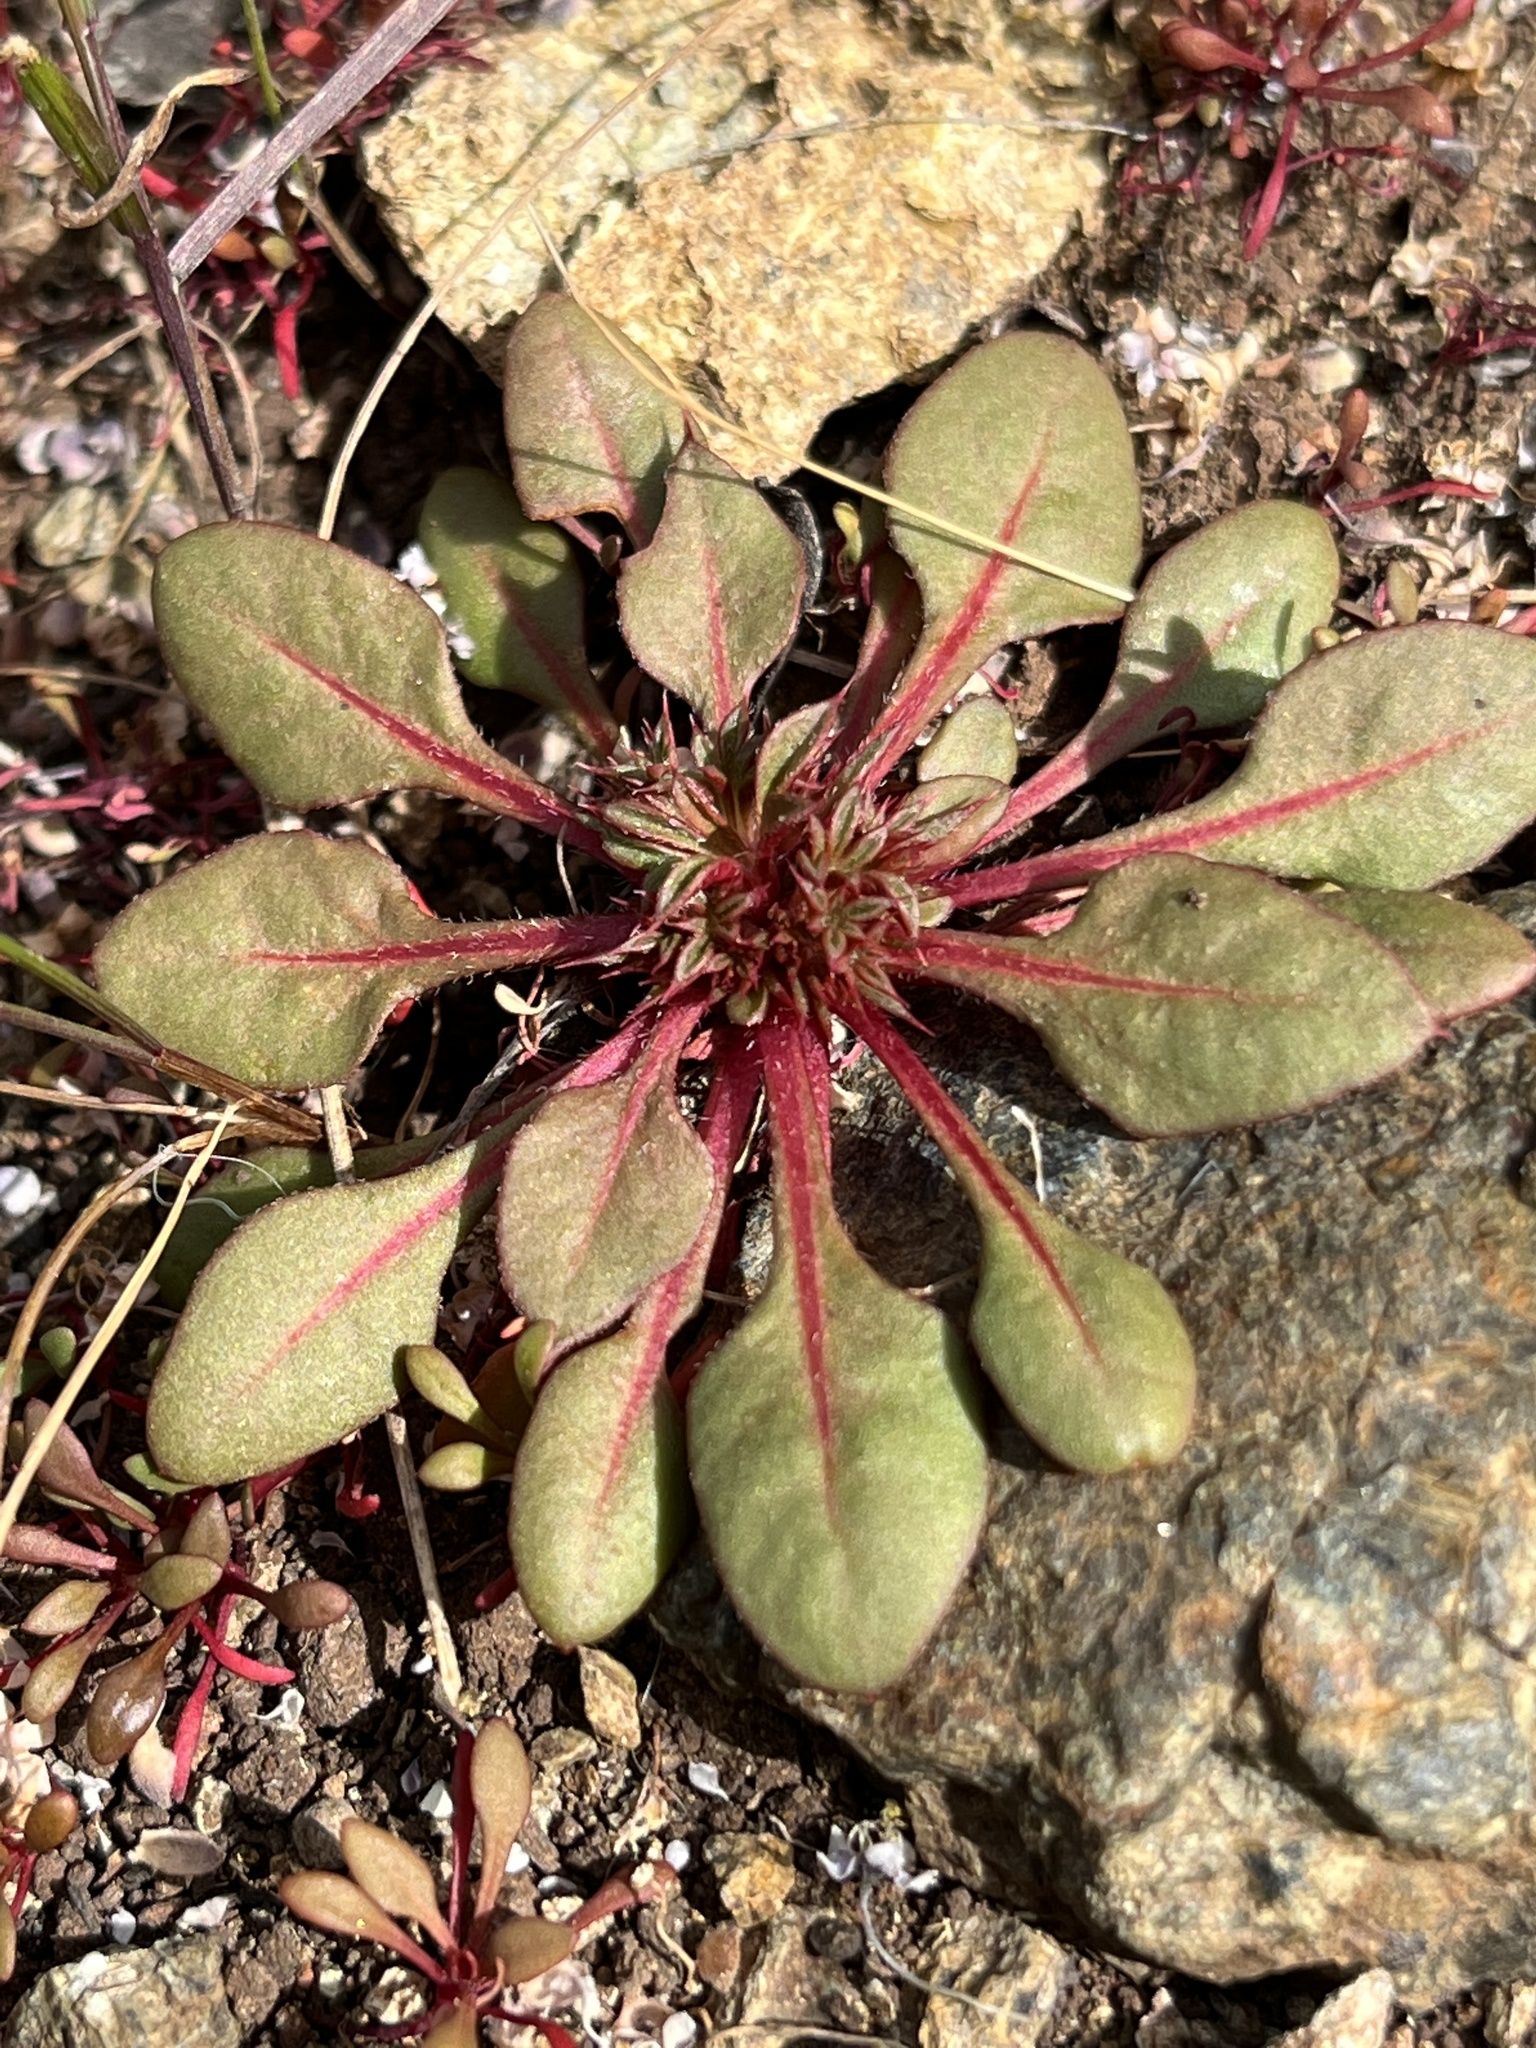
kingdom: Plantae
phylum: Tracheophyta
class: Magnoliopsida
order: Caryophyllales
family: Polygonaceae
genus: Chorizanthe
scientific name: Chorizanthe aphanantha
